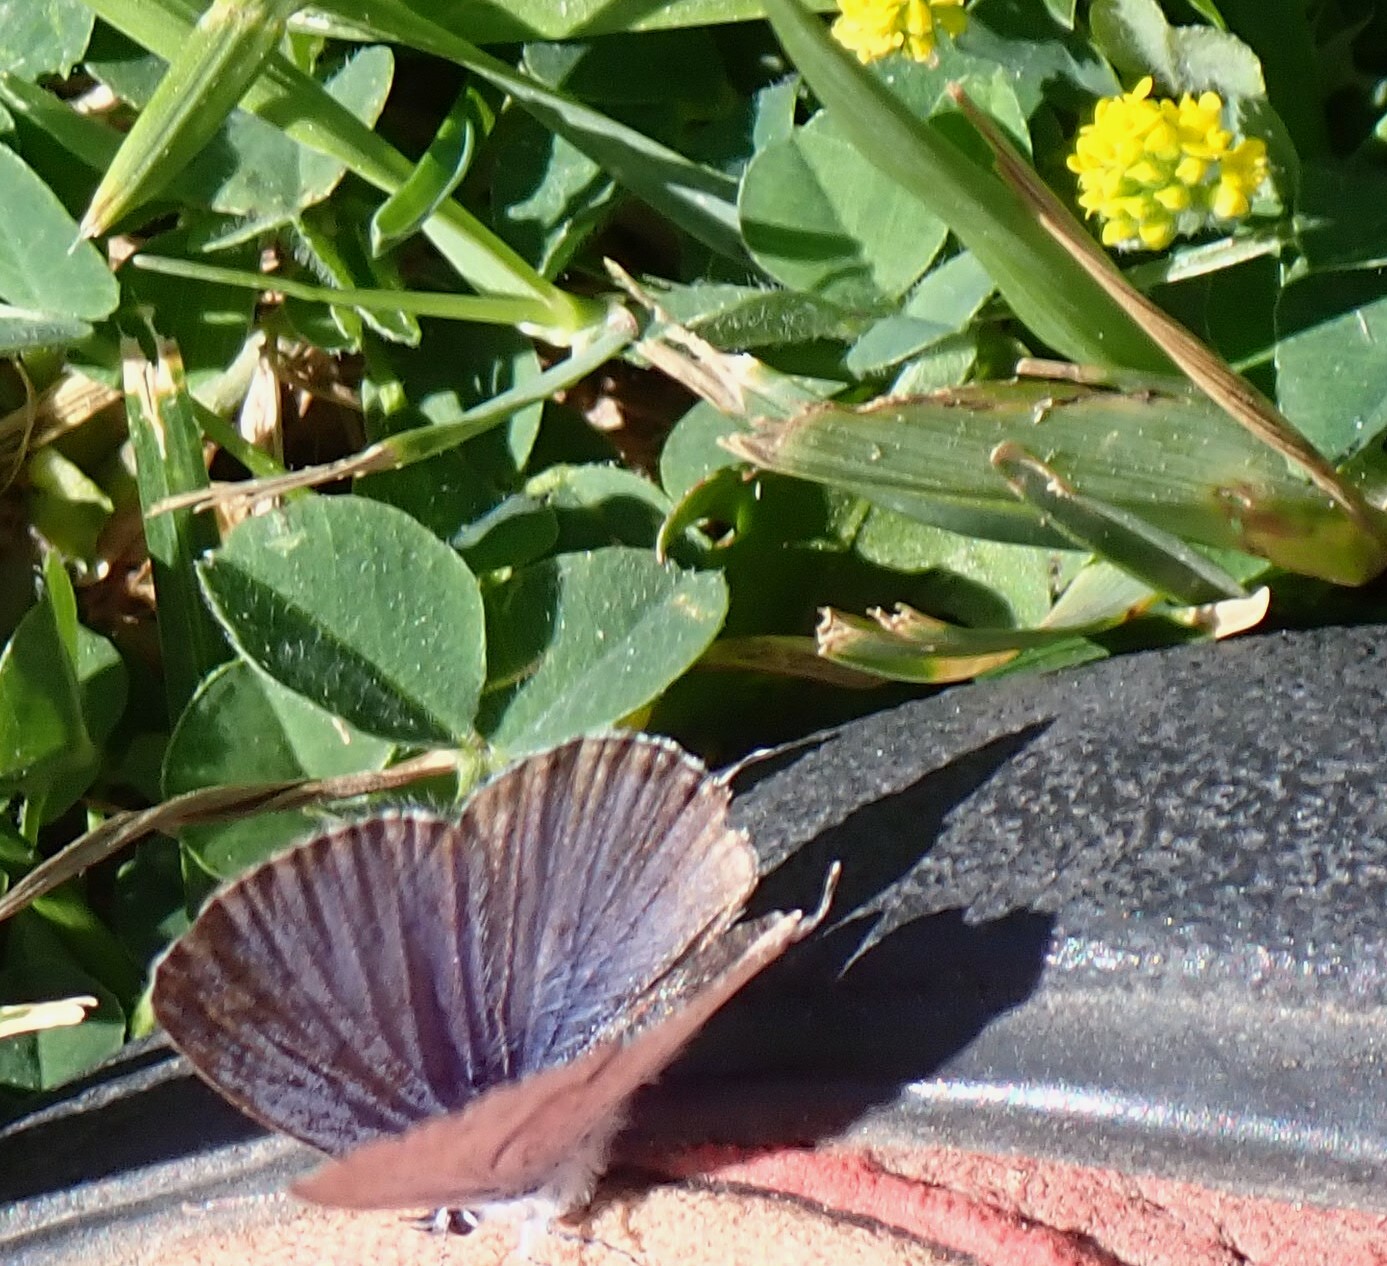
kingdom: Animalia
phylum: Arthropoda
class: Insecta
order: Lepidoptera
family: Lycaenidae
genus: Elkalyce
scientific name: Elkalyce amyntula
